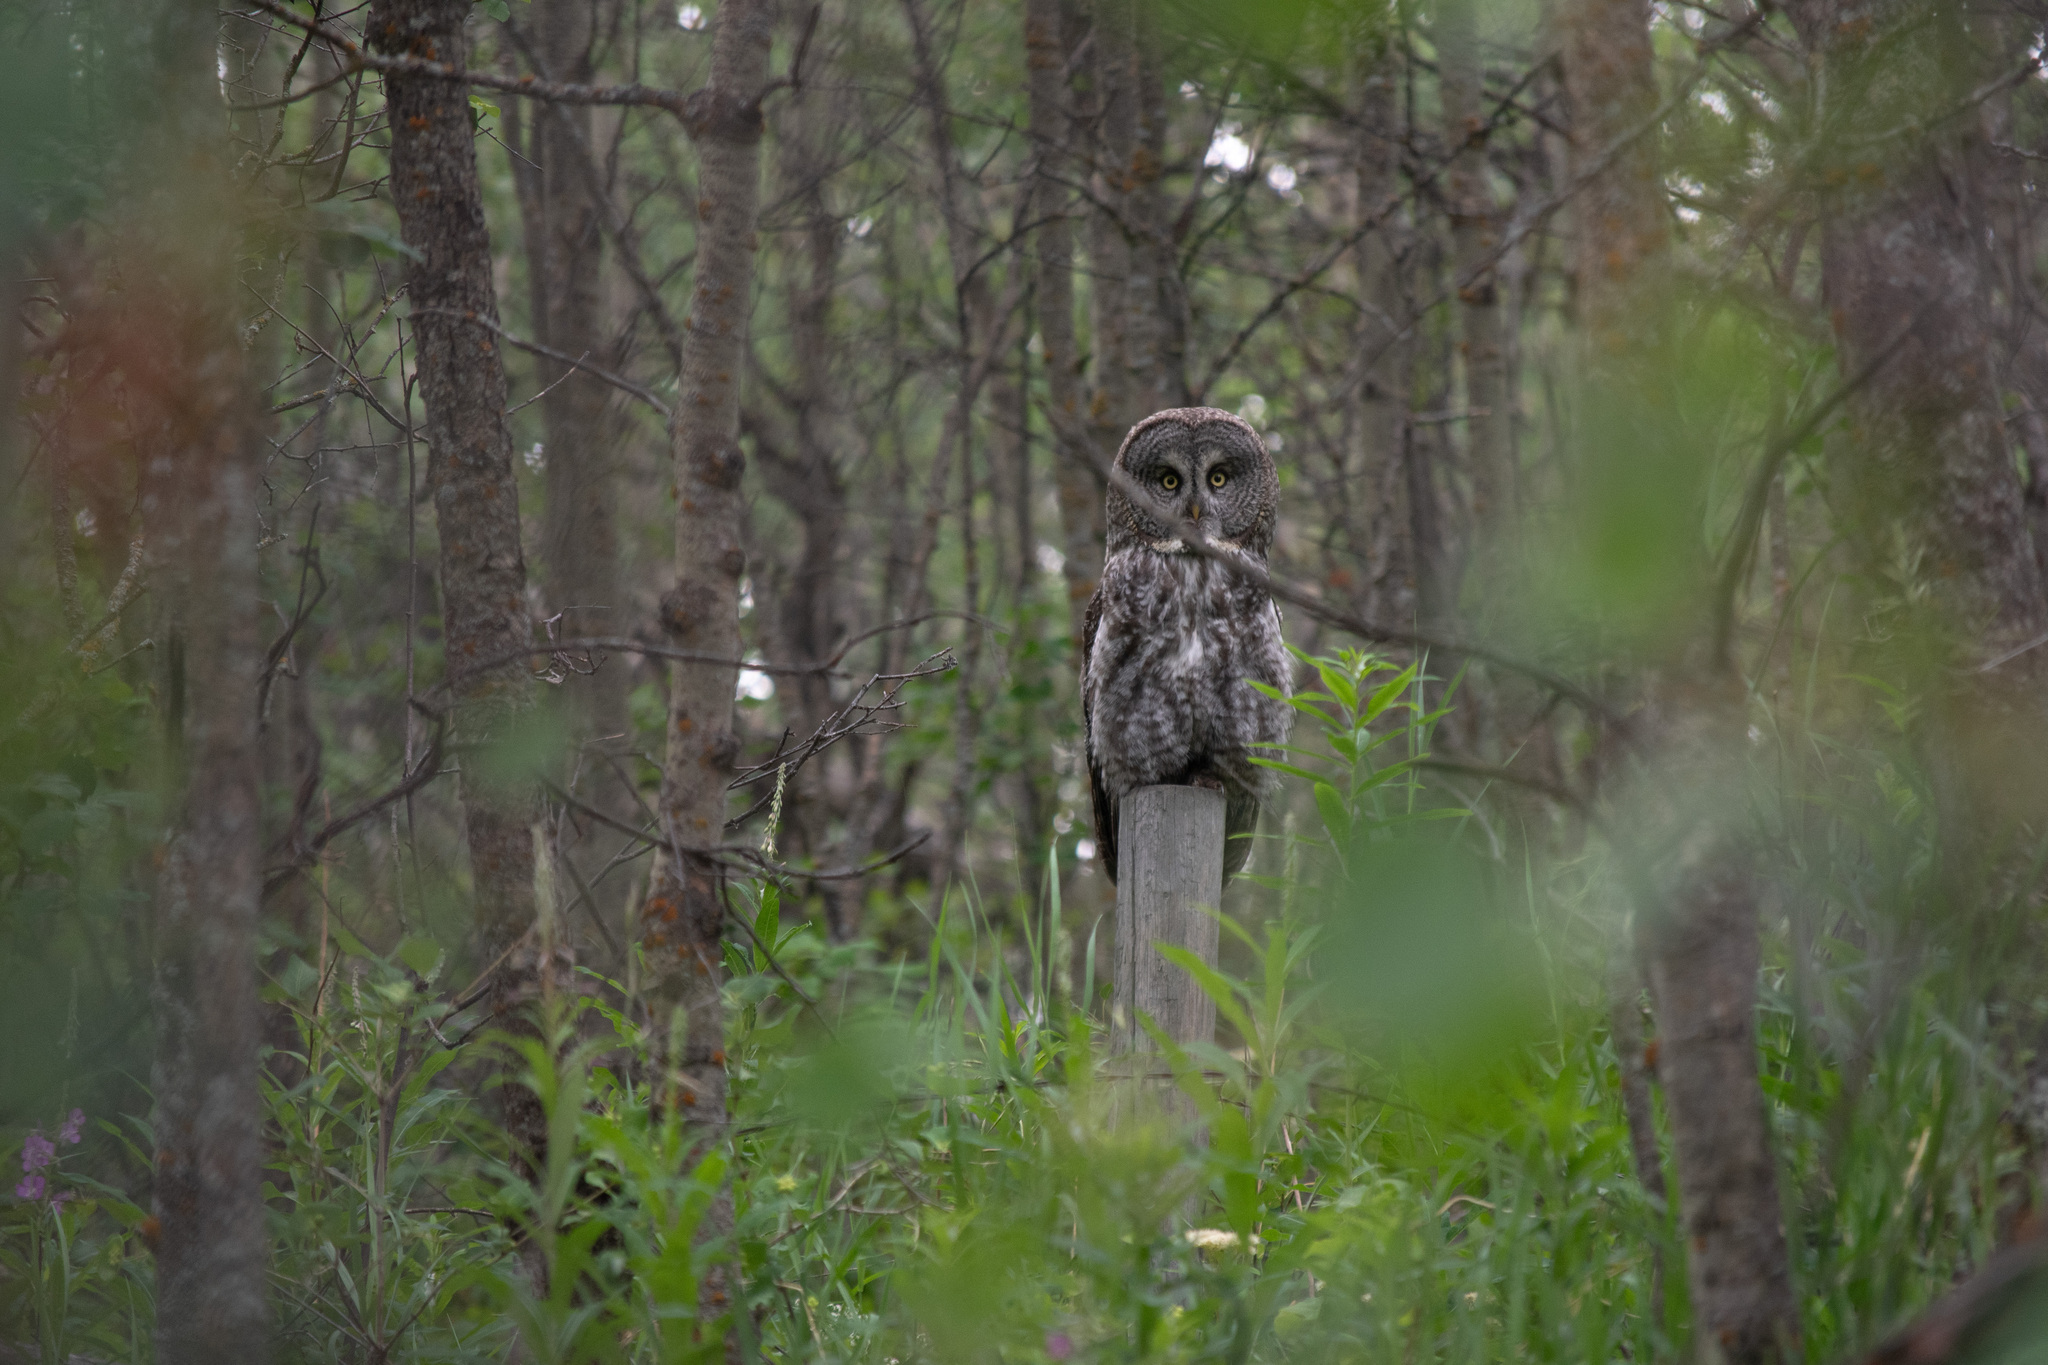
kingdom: Animalia
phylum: Chordata
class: Aves
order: Strigiformes
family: Strigidae
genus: Strix
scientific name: Strix nebulosa
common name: Great grey owl
